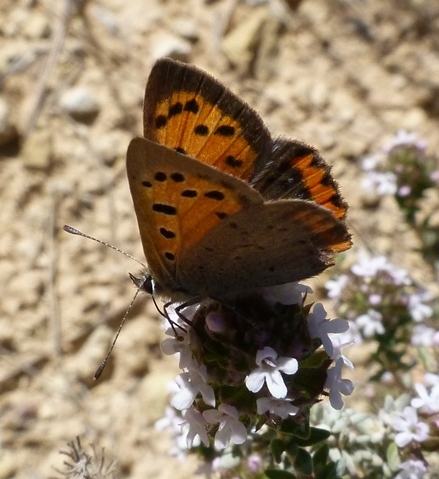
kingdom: Animalia
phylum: Arthropoda
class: Insecta
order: Lepidoptera
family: Lycaenidae
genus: Lycaena
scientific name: Lycaena phlaeas
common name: Small copper
